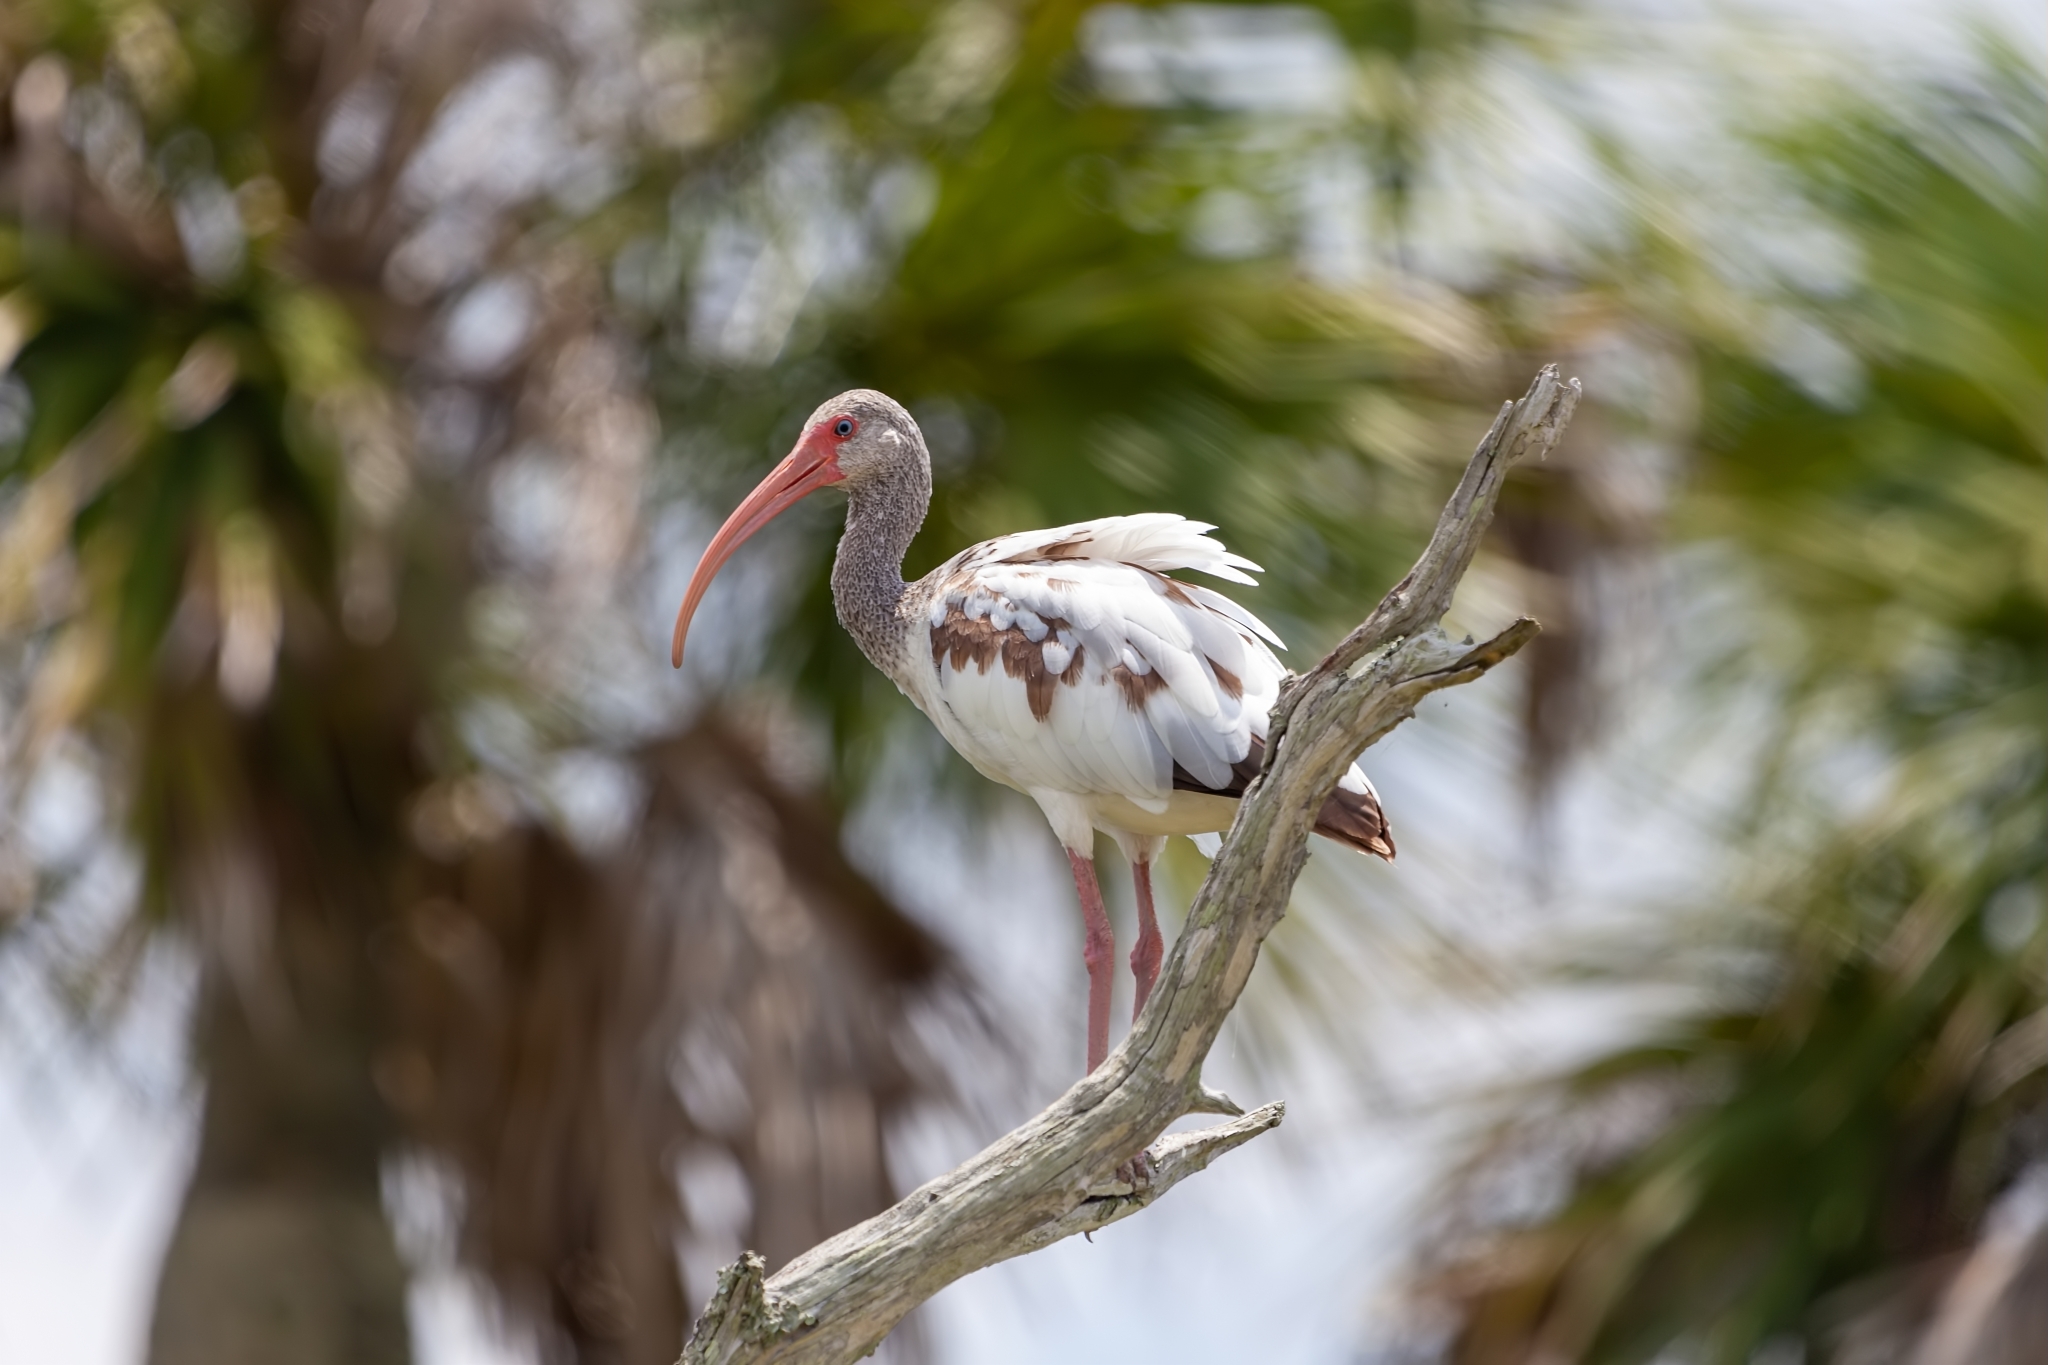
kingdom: Animalia
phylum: Chordata
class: Aves
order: Pelecaniformes
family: Threskiornithidae
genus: Eudocimus
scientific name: Eudocimus albus
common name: White ibis
